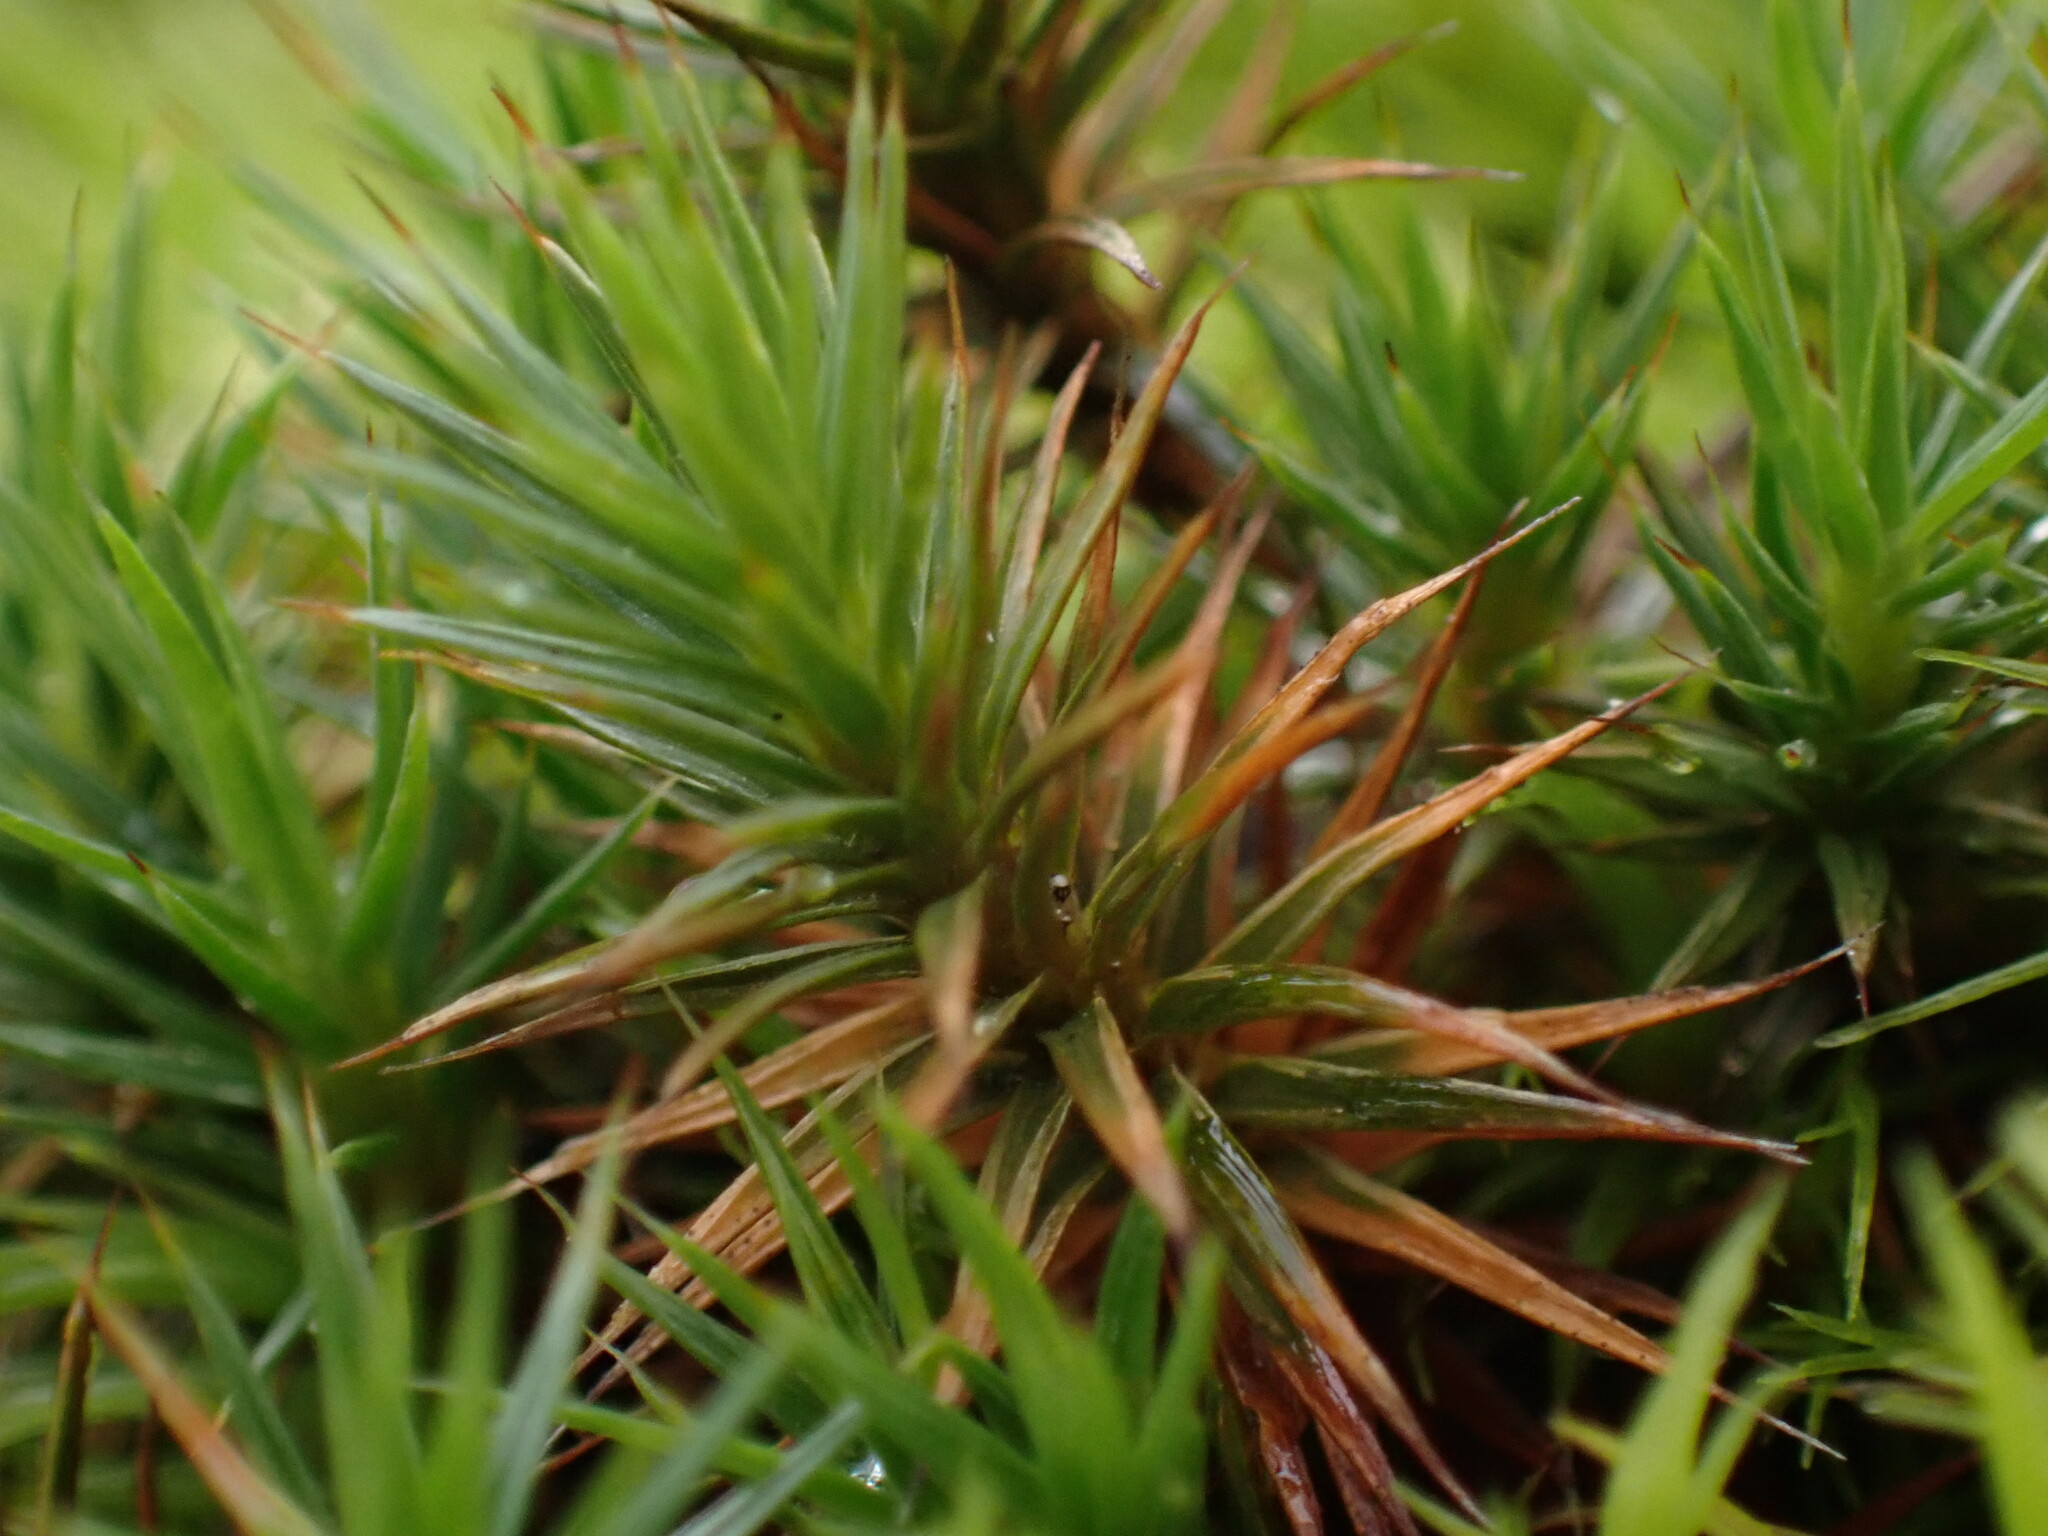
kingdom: Plantae
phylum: Bryophyta
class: Polytrichopsida
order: Polytrichales
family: Polytrichaceae
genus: Polytrichum
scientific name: Polytrichum juniperinum
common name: Juniper haircap moss
